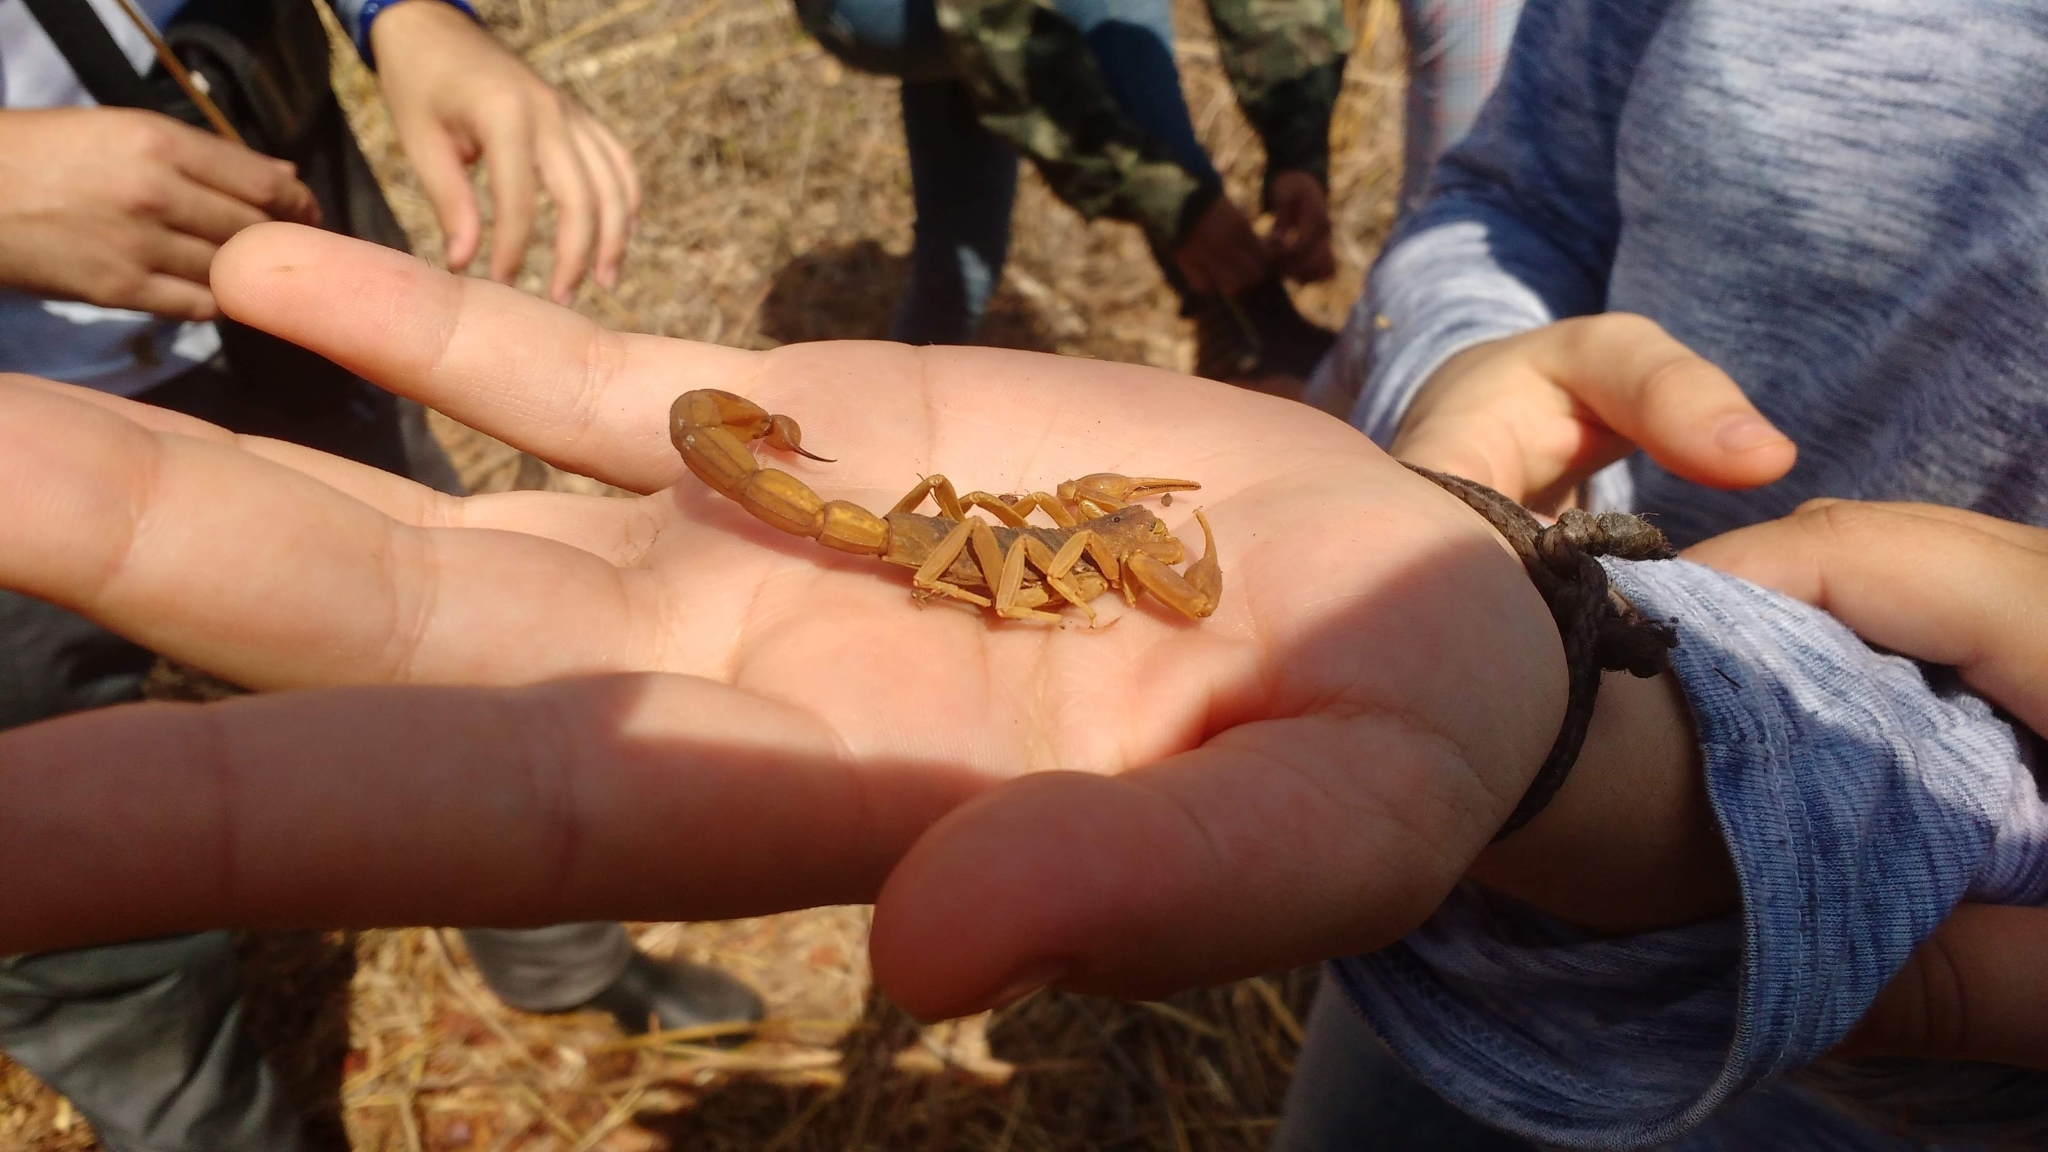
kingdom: Animalia
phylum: Arthropoda
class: Arachnida
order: Scorpiones
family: Buthidae
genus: Jaguajir
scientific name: Jaguajir rochae
